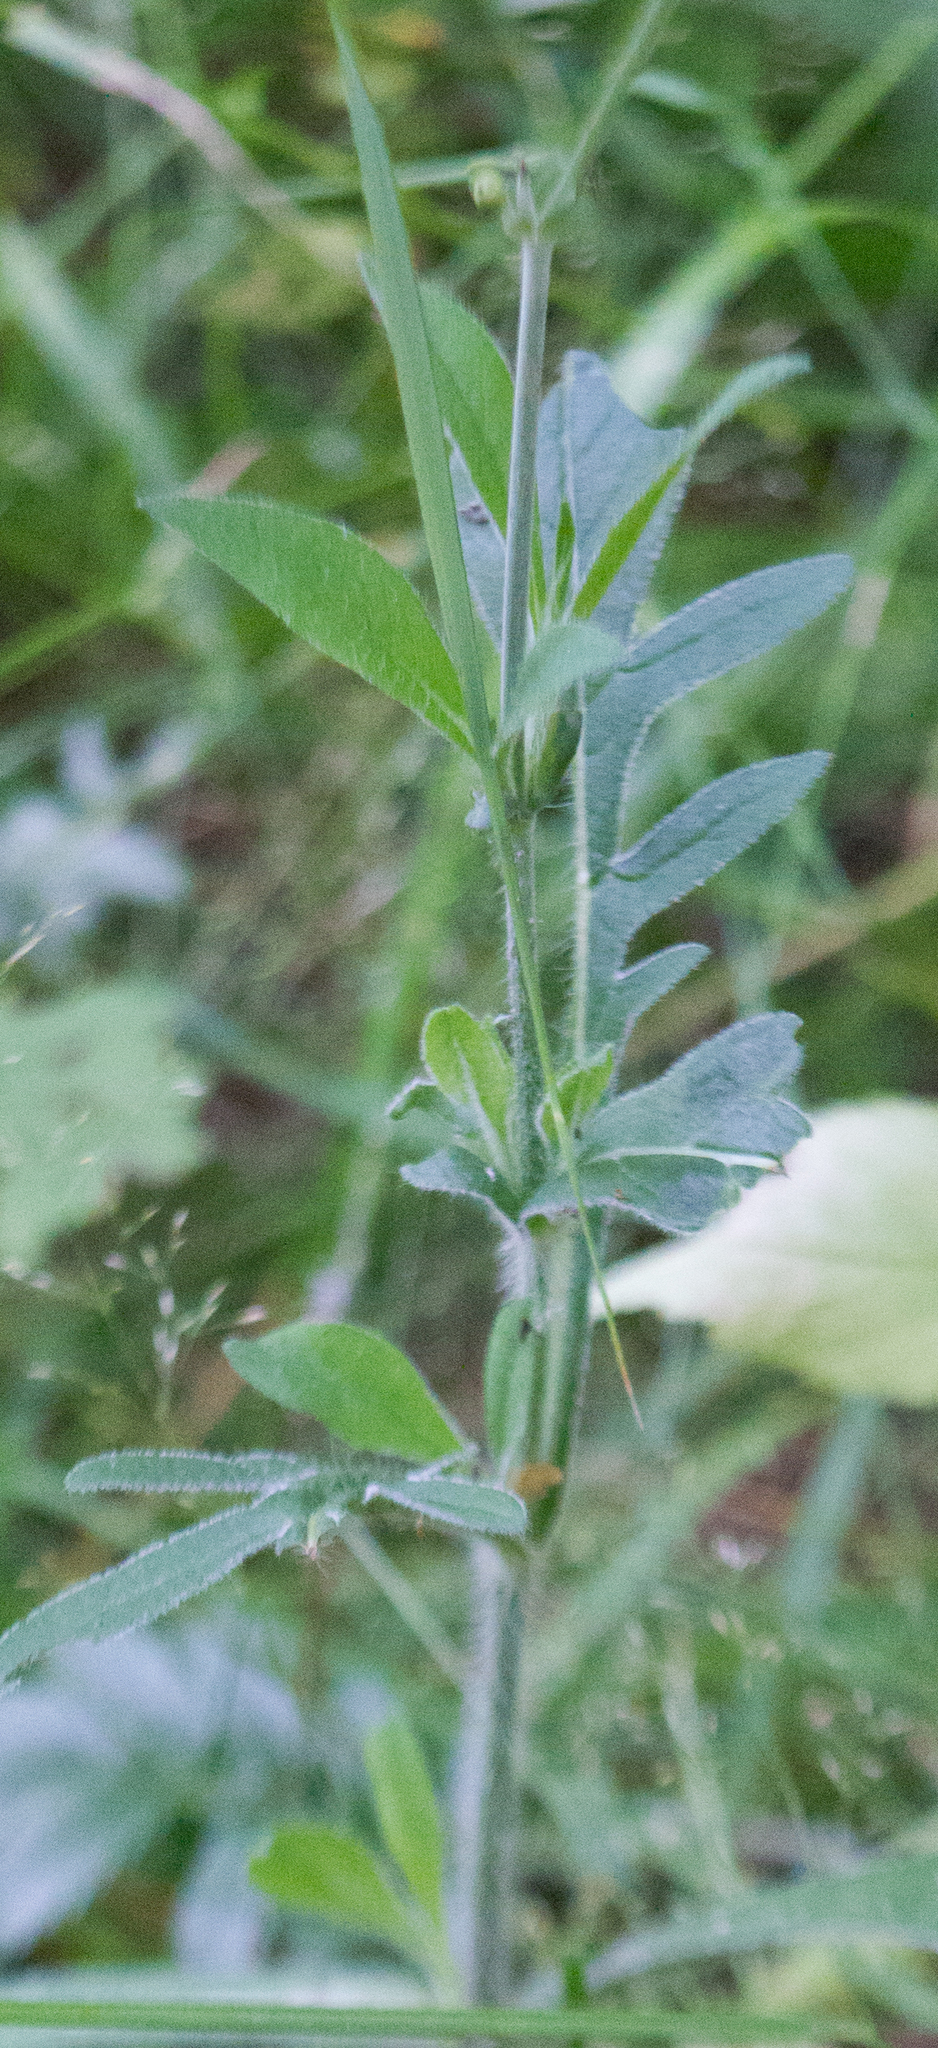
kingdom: Plantae
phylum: Tracheophyta
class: Magnoliopsida
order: Dipsacales
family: Caprifoliaceae
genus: Knautia
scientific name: Knautia arvensis
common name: Field scabiosa
